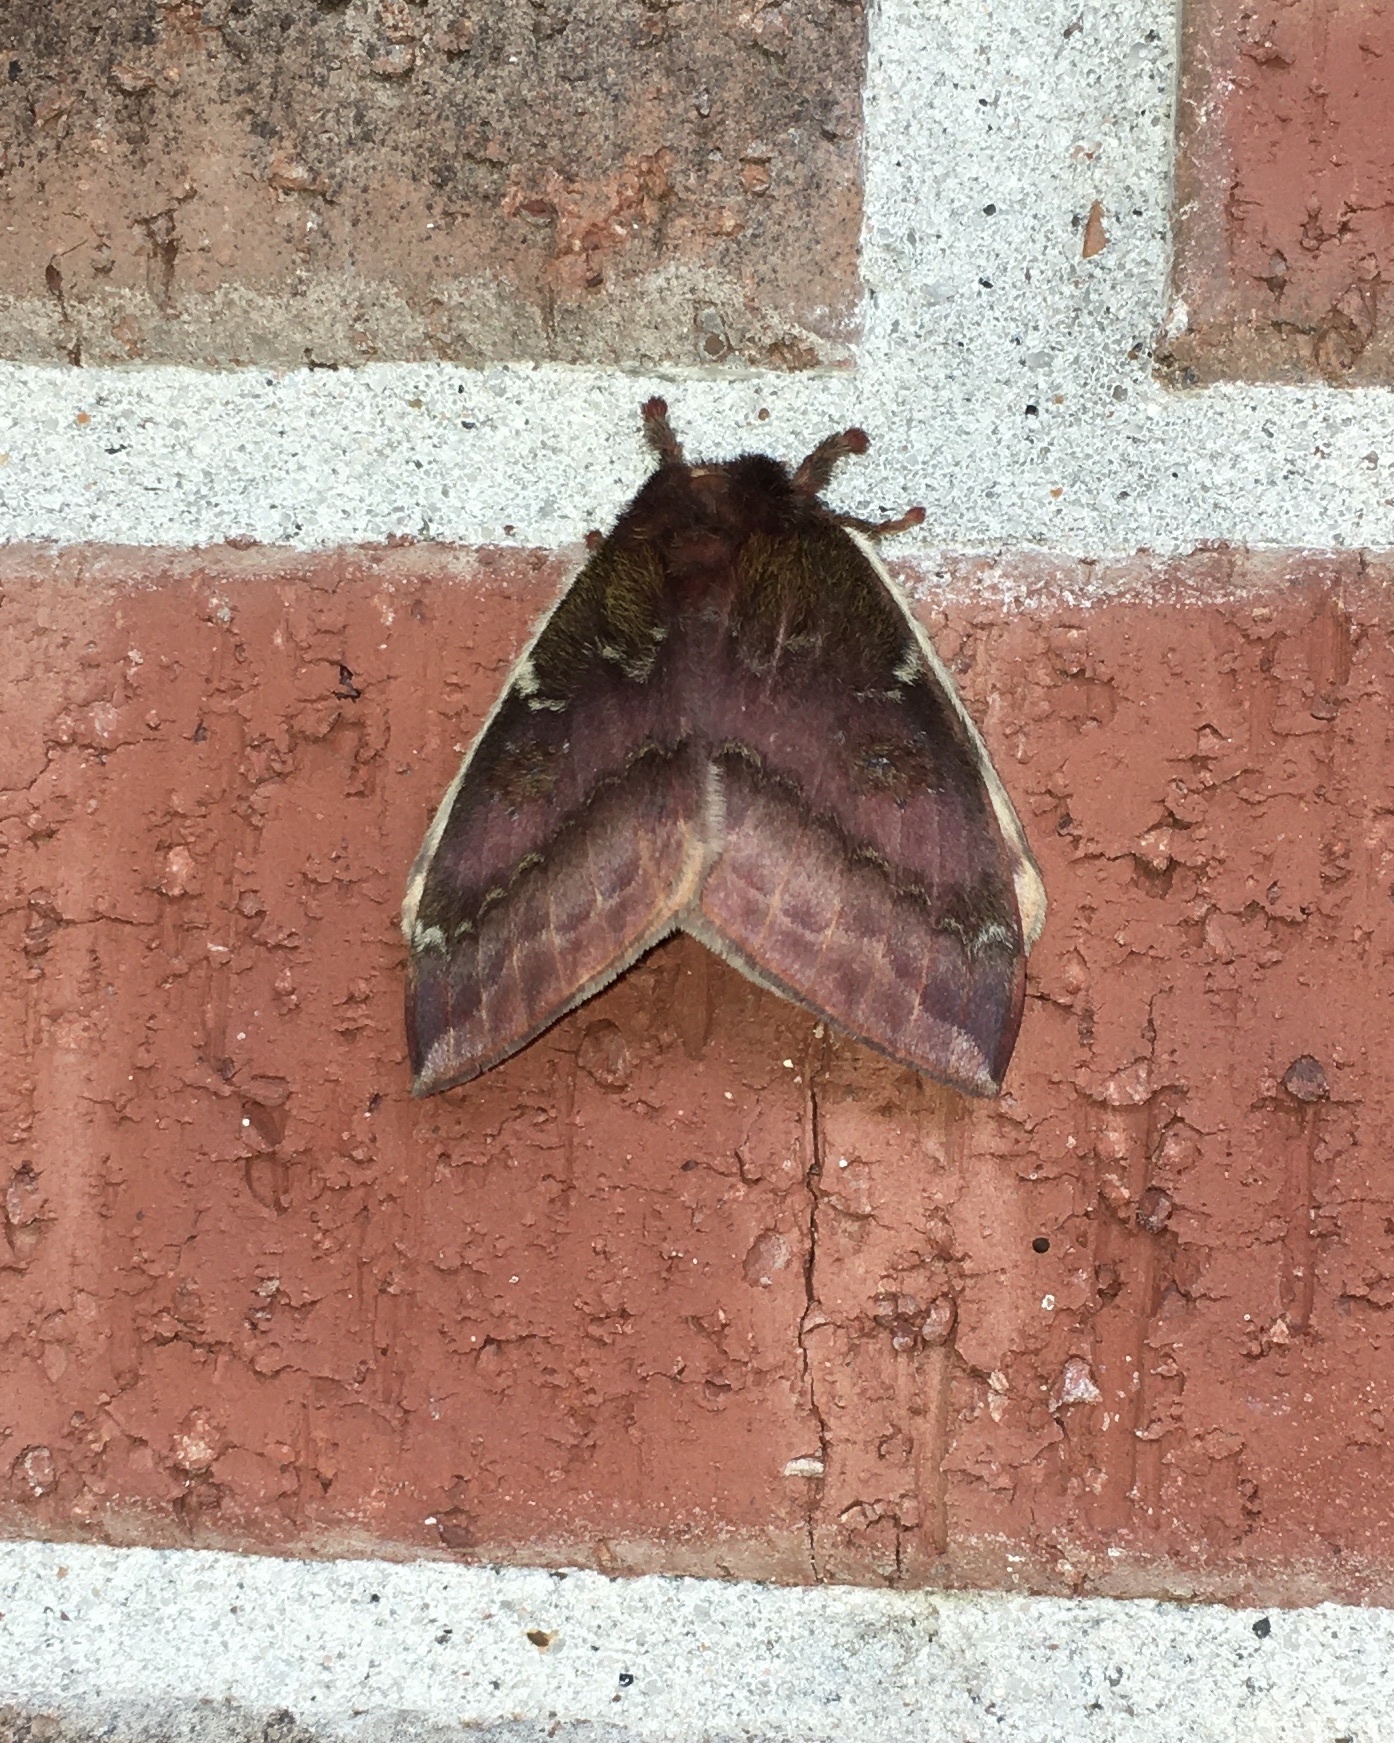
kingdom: Animalia
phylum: Arthropoda
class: Insecta
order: Lepidoptera
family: Saturniidae
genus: Automeris
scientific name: Automeris io
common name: Io moth
